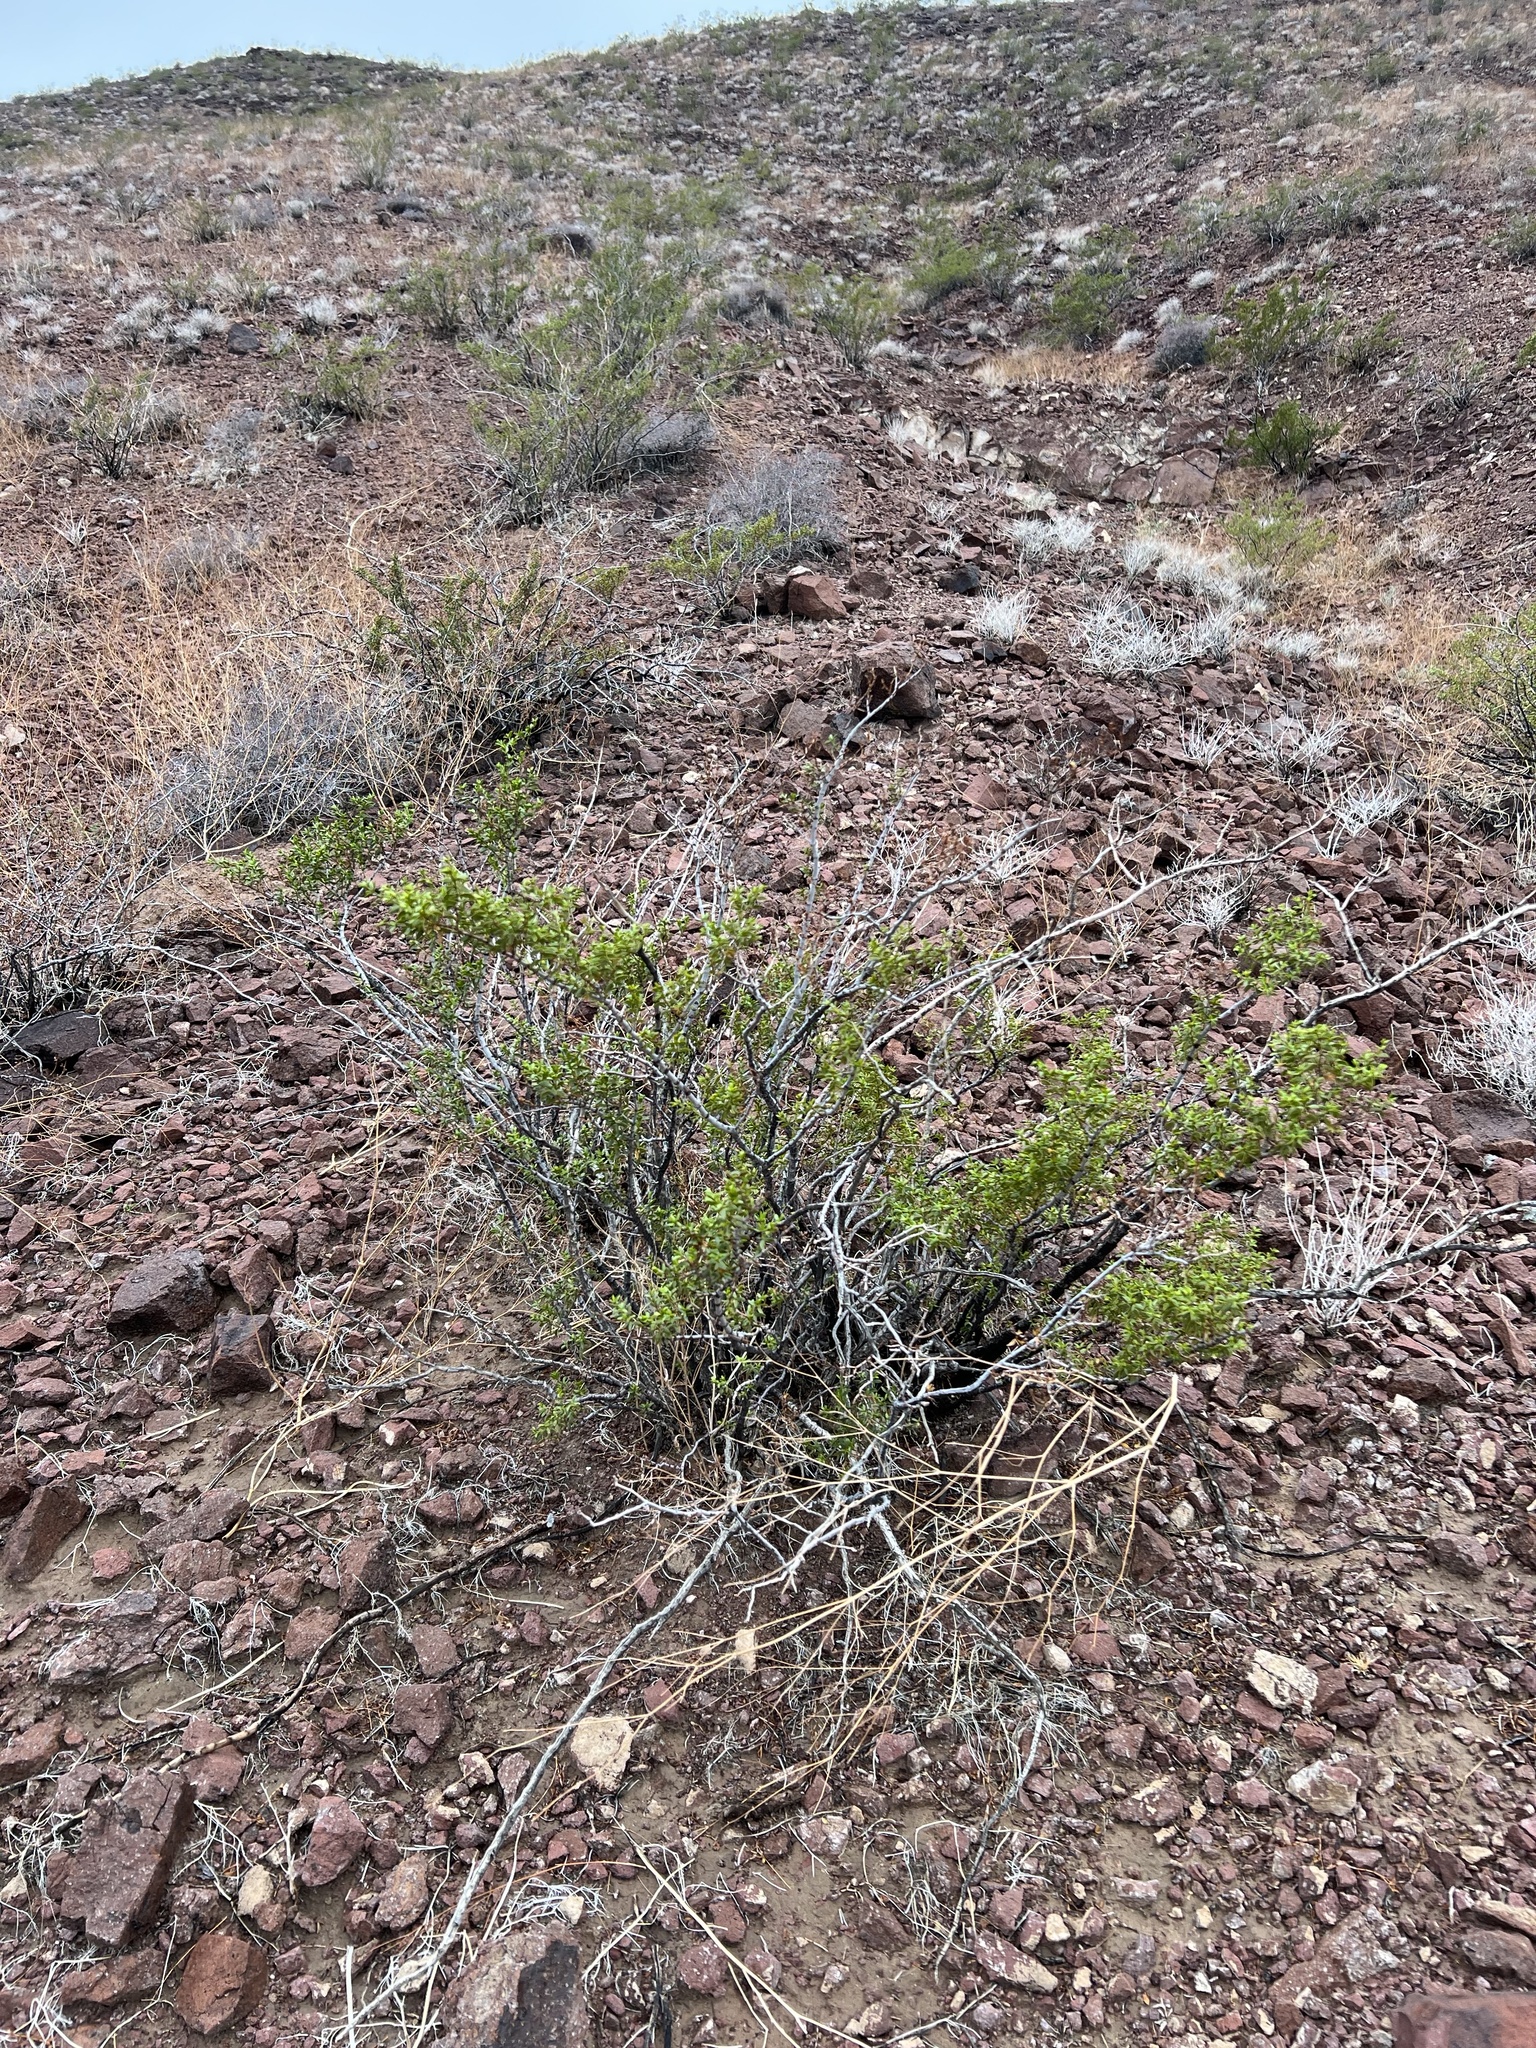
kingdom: Plantae
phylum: Tracheophyta
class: Magnoliopsida
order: Zygophyllales
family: Zygophyllaceae
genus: Larrea
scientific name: Larrea tridentata
